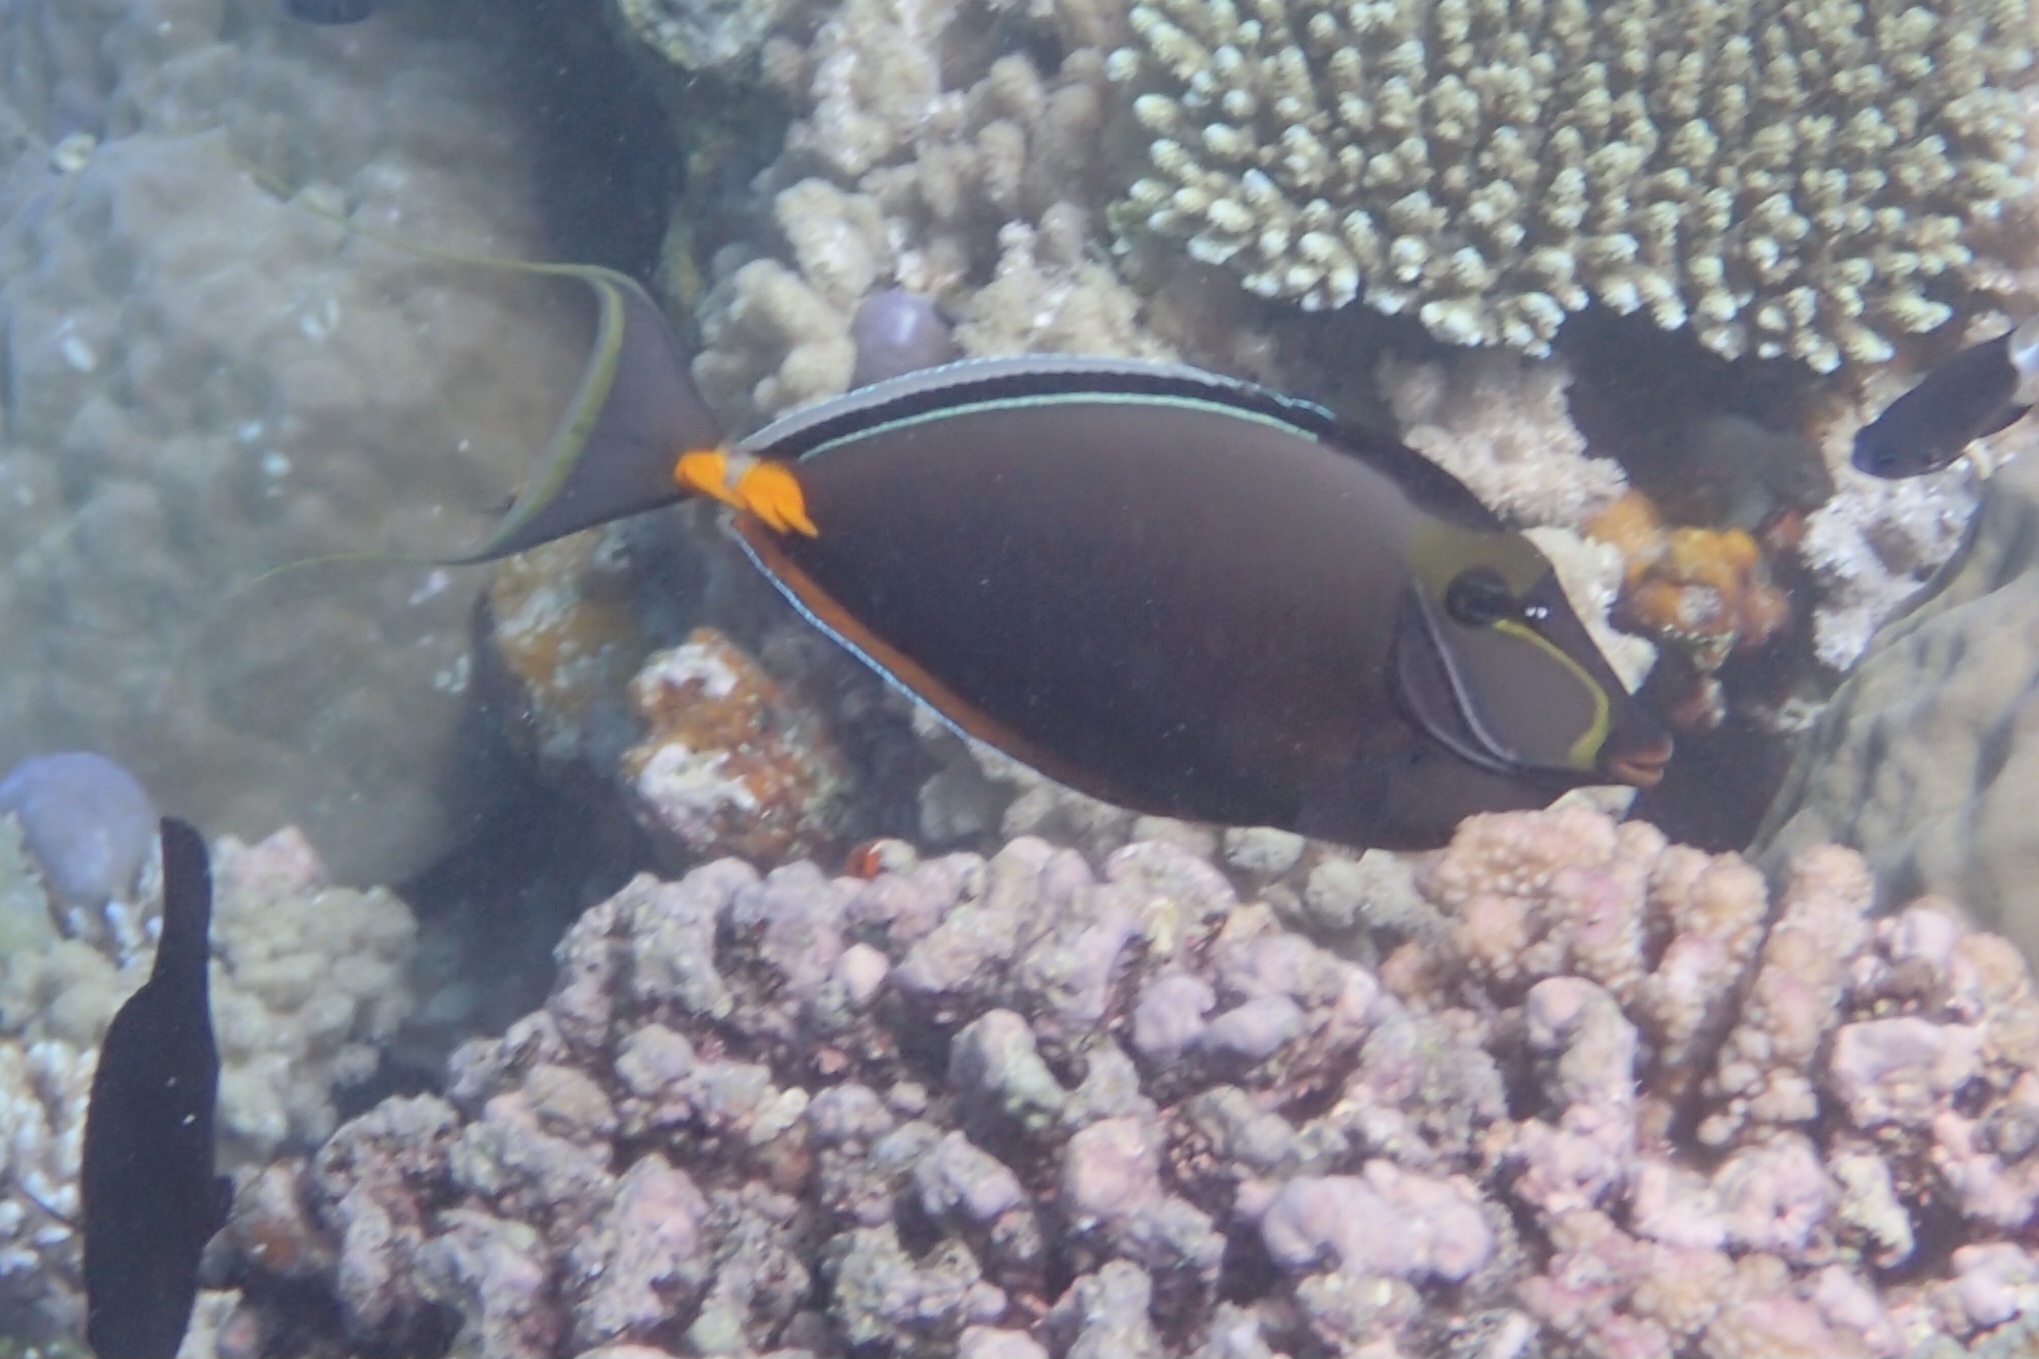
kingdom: Animalia
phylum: Chordata
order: Perciformes
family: Acanthuridae
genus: Naso
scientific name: Naso lituratus
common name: Orangespine unicornfish
